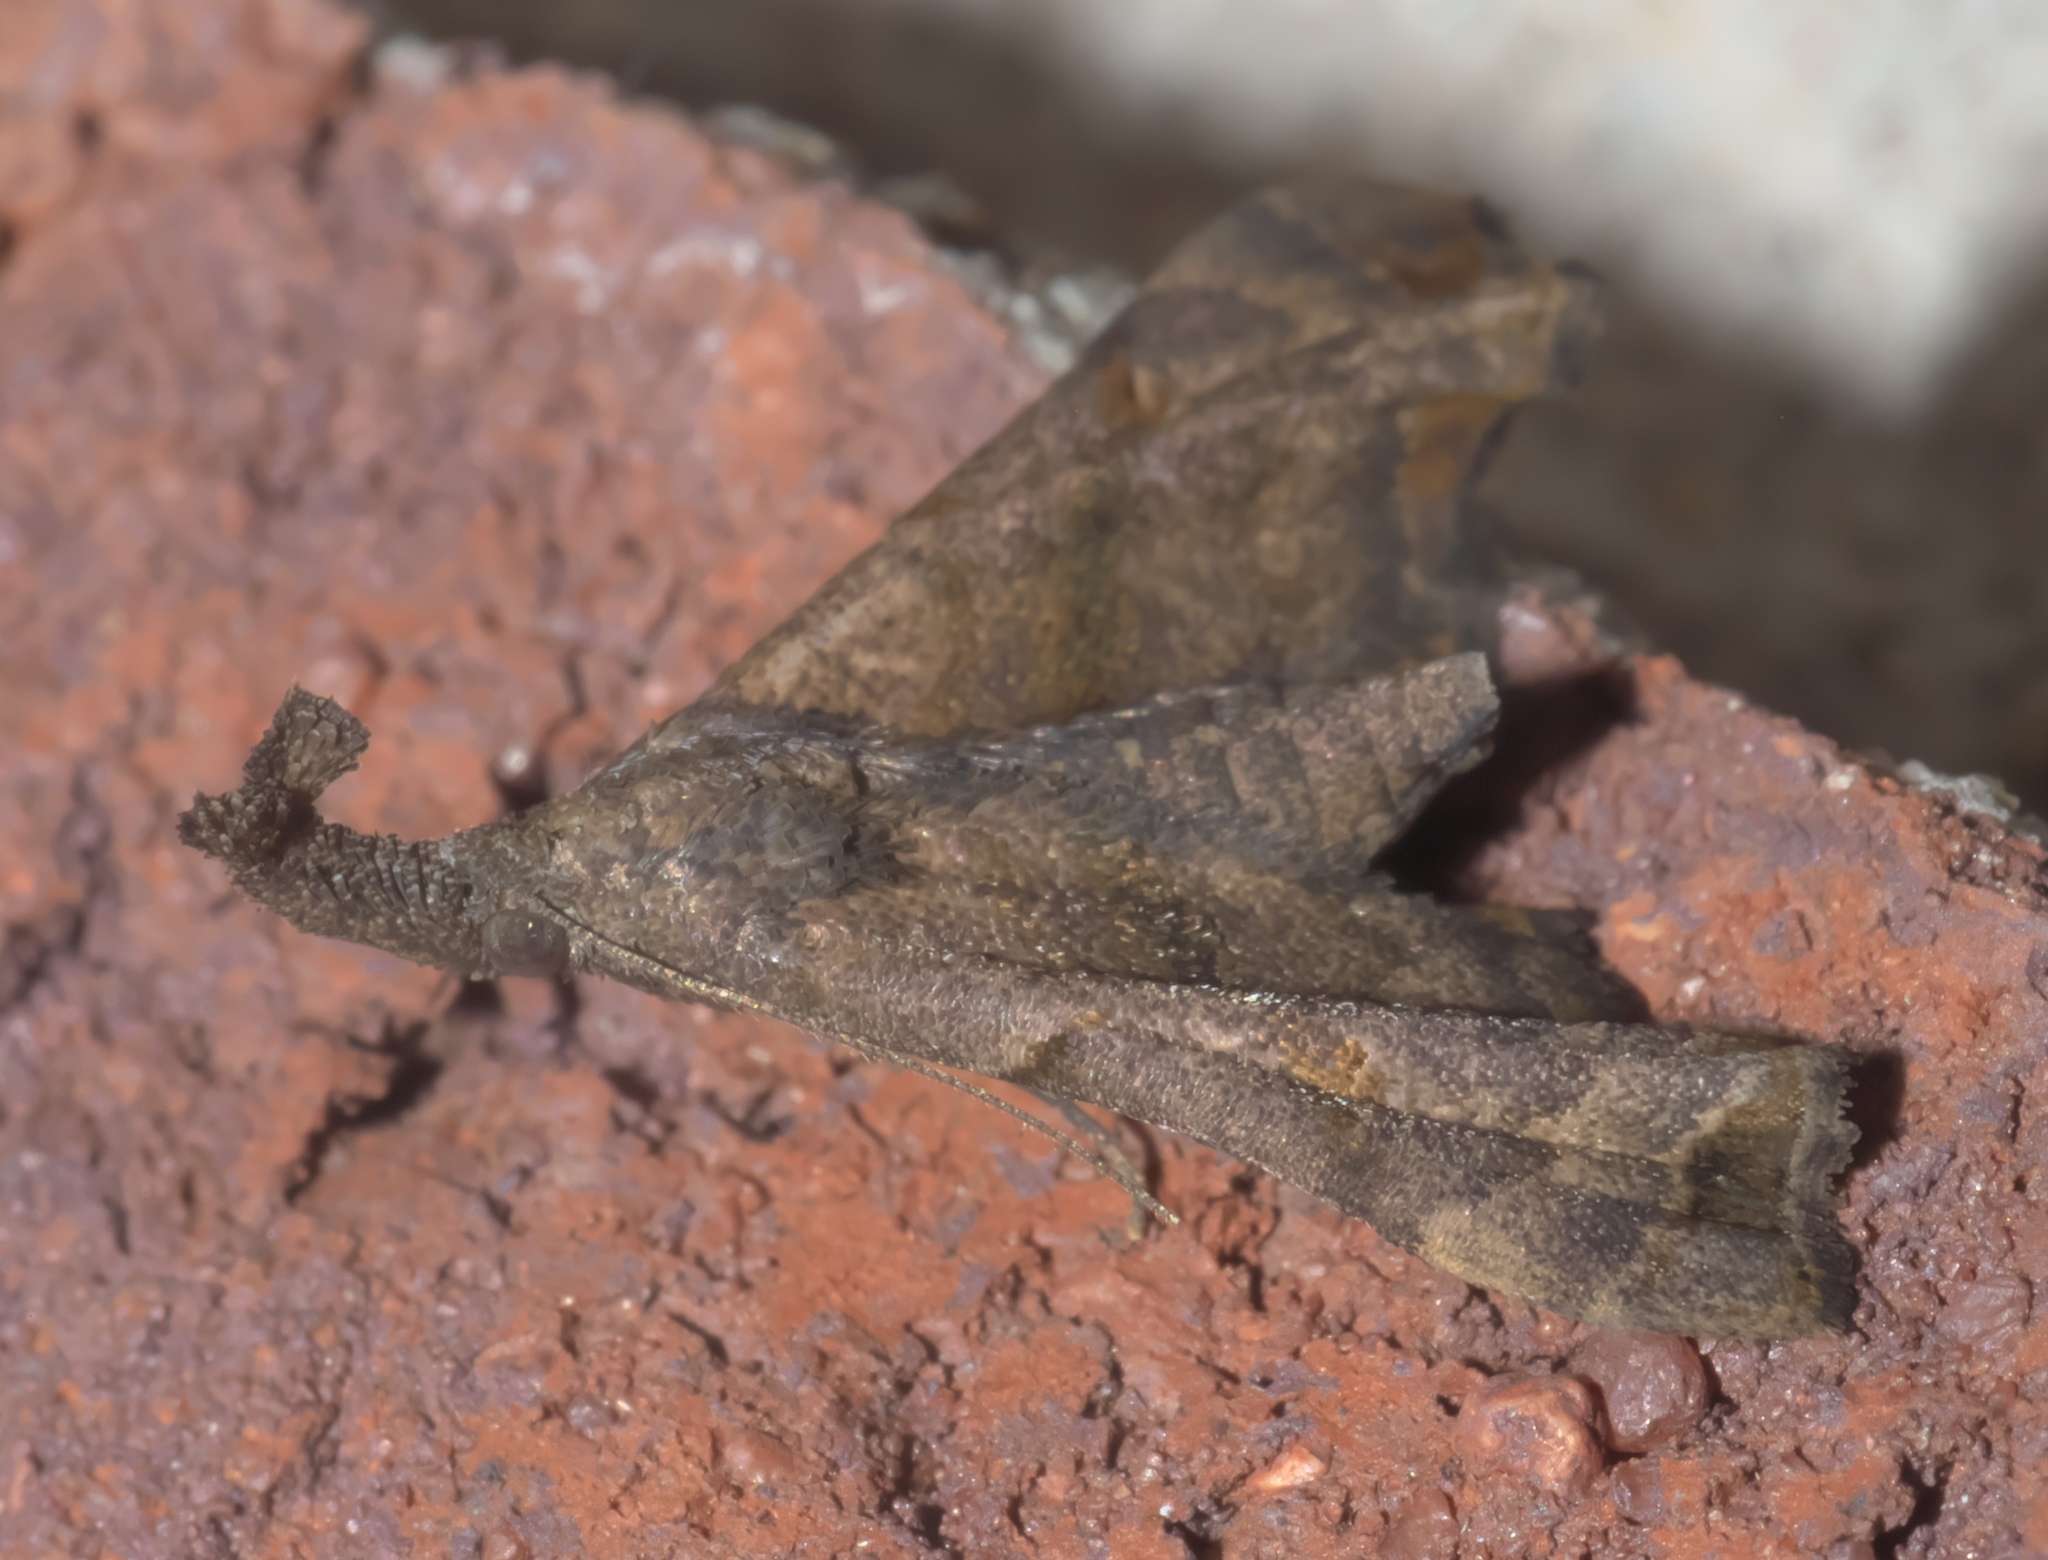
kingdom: Animalia
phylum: Arthropoda
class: Insecta
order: Lepidoptera
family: Erebidae
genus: Palthis
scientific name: Palthis asopialis
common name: Faint-spotted palthis moth
